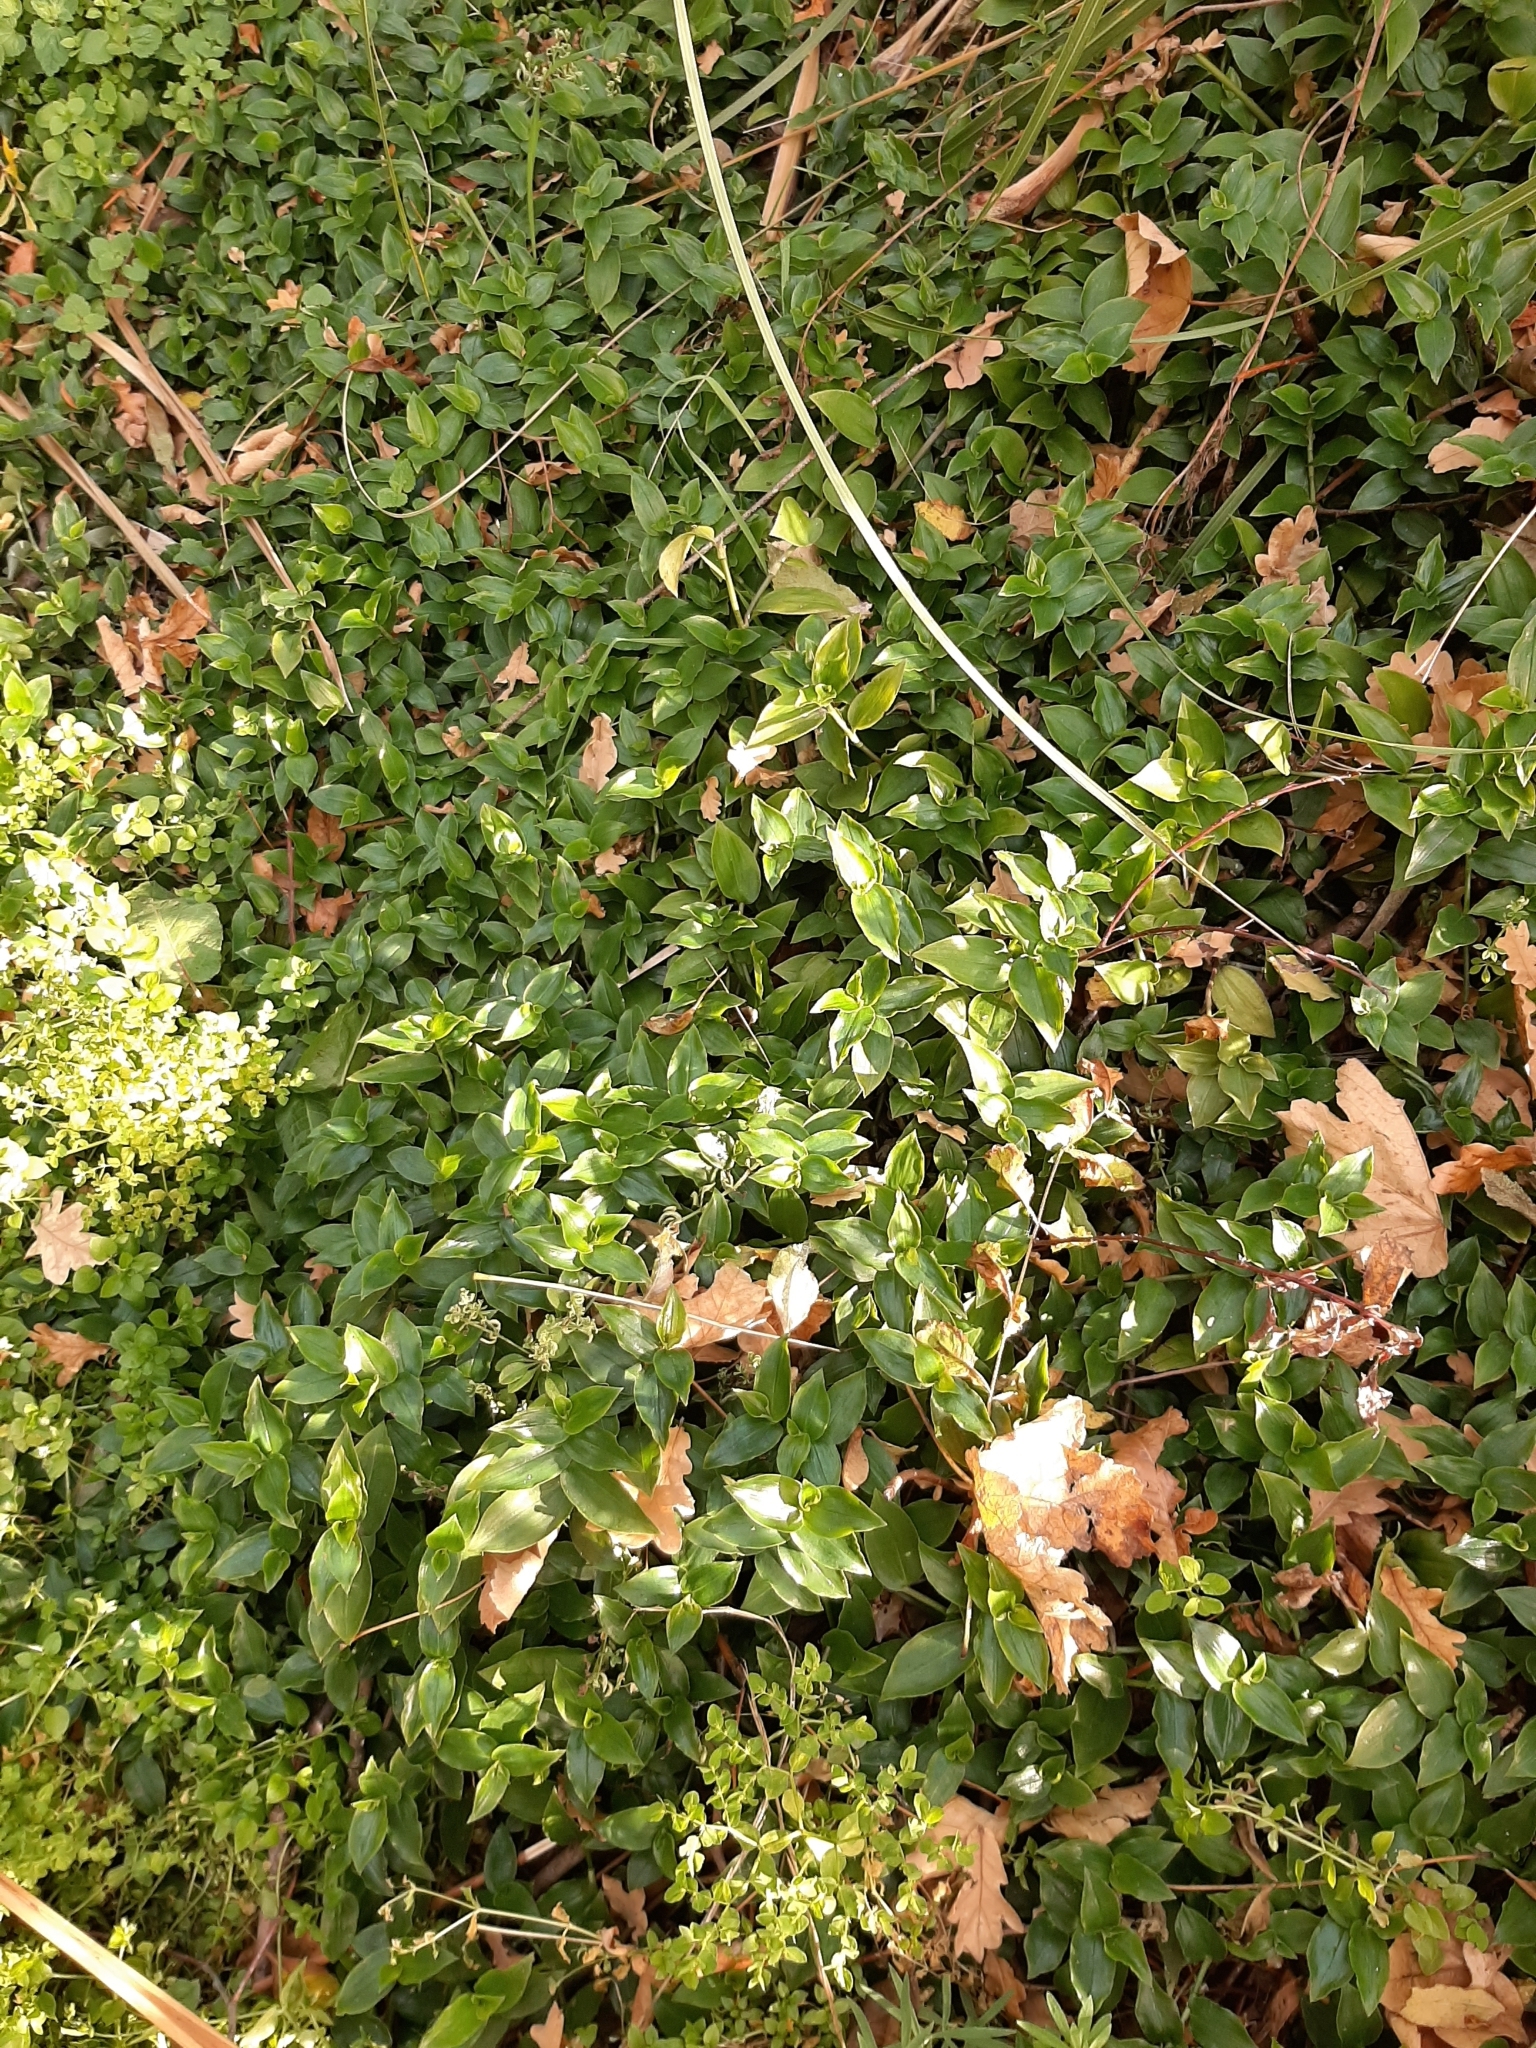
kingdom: Plantae
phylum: Tracheophyta
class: Liliopsida
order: Commelinales
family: Commelinaceae
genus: Tradescantia
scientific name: Tradescantia fluminensis
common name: Wandering-jew
